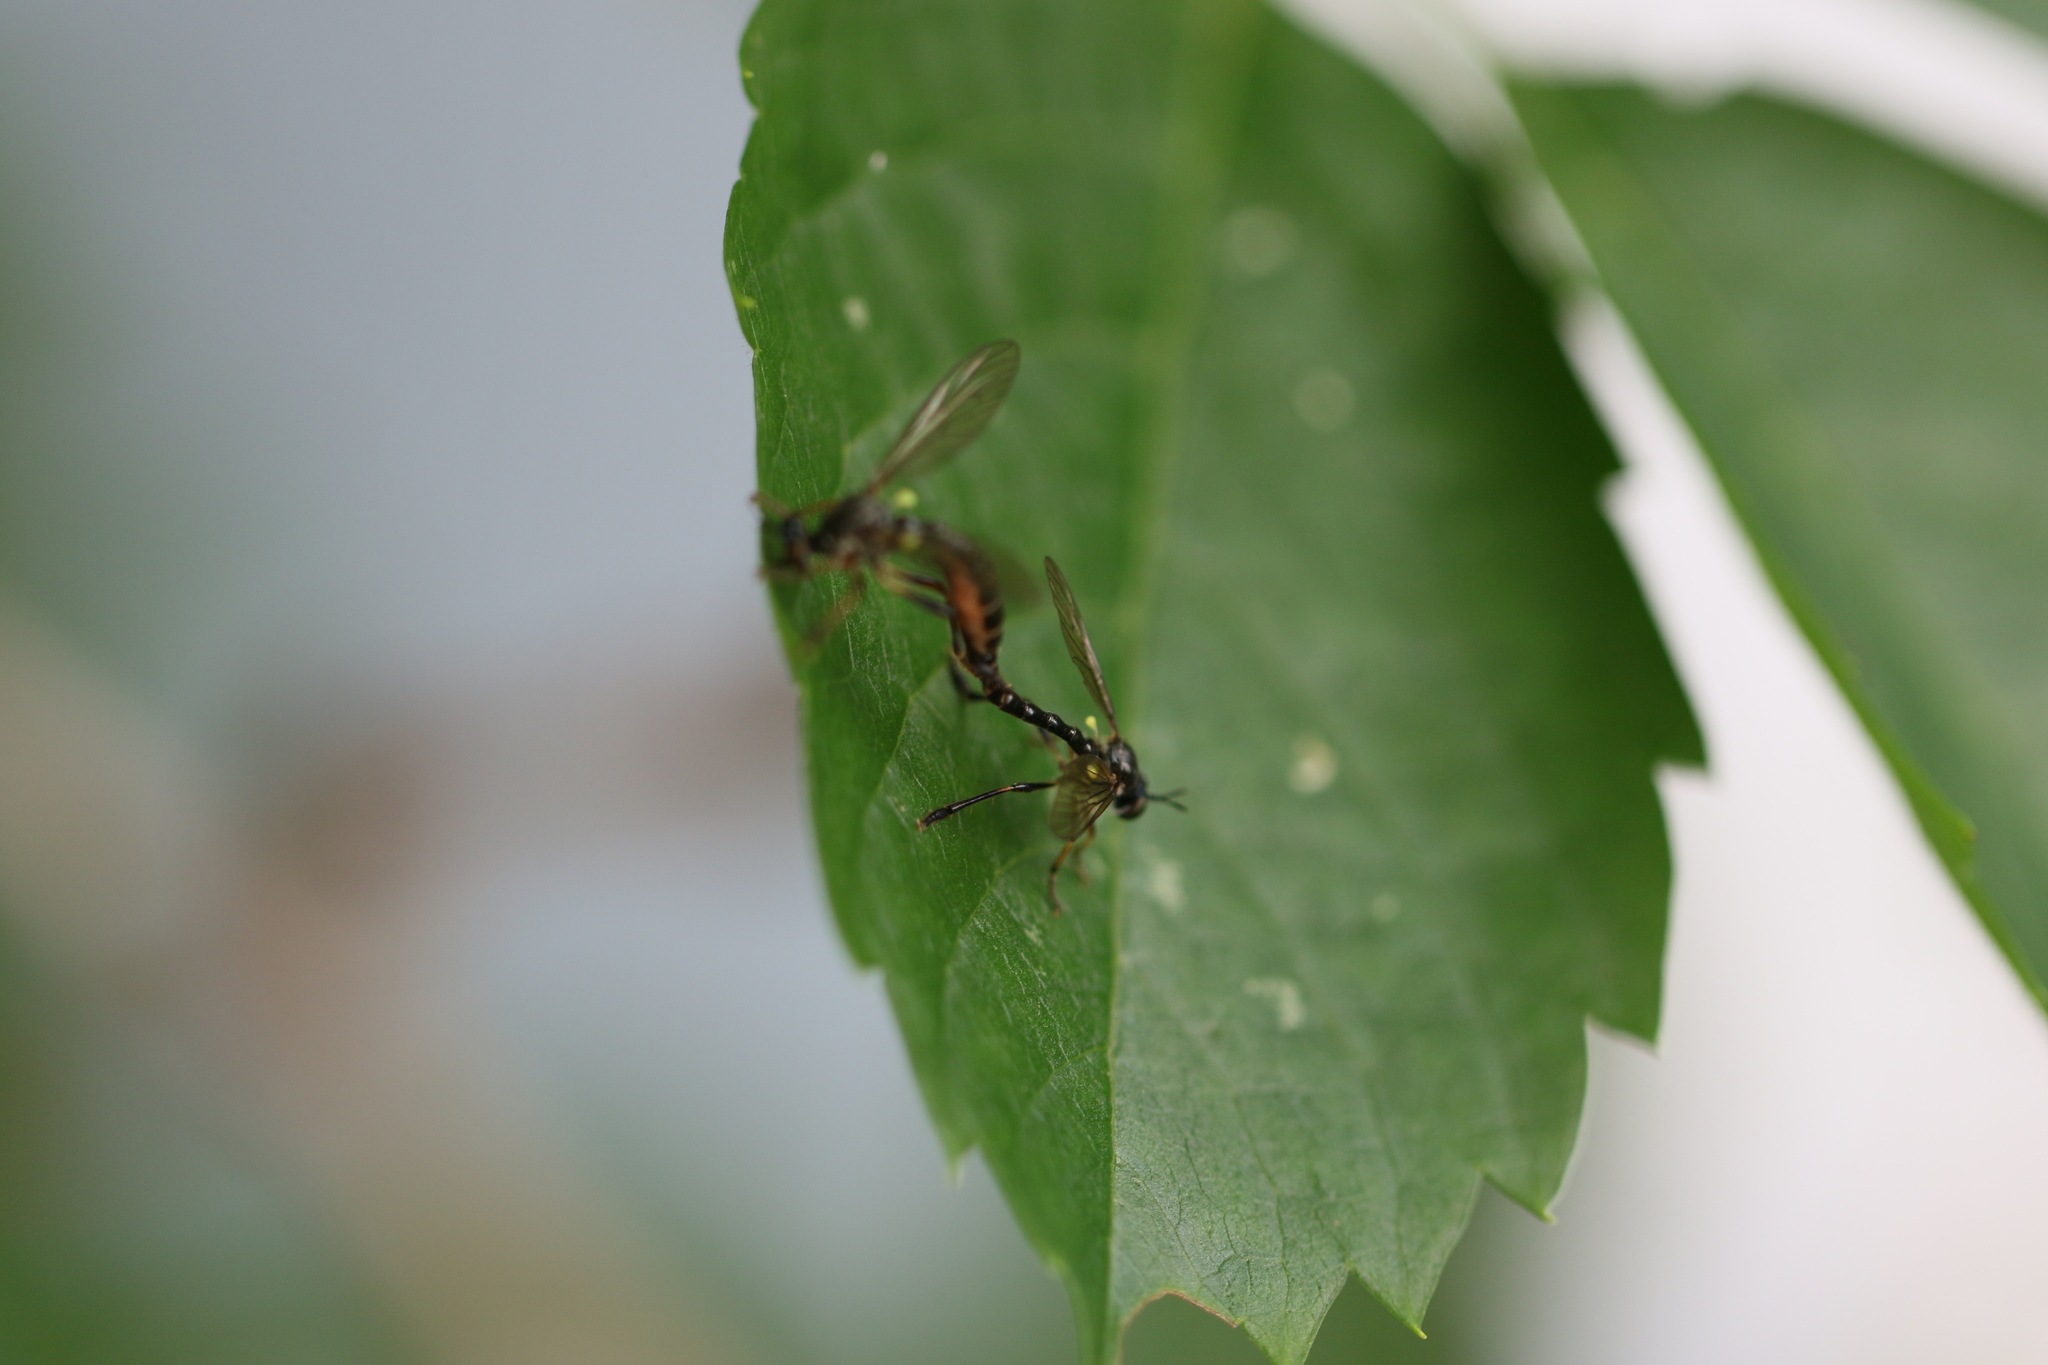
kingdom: Animalia
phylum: Arthropoda
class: Insecta
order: Diptera
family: Asilidae
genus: Dioctria
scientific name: Dioctria hyalipennis
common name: Stripe-legged robberfly
